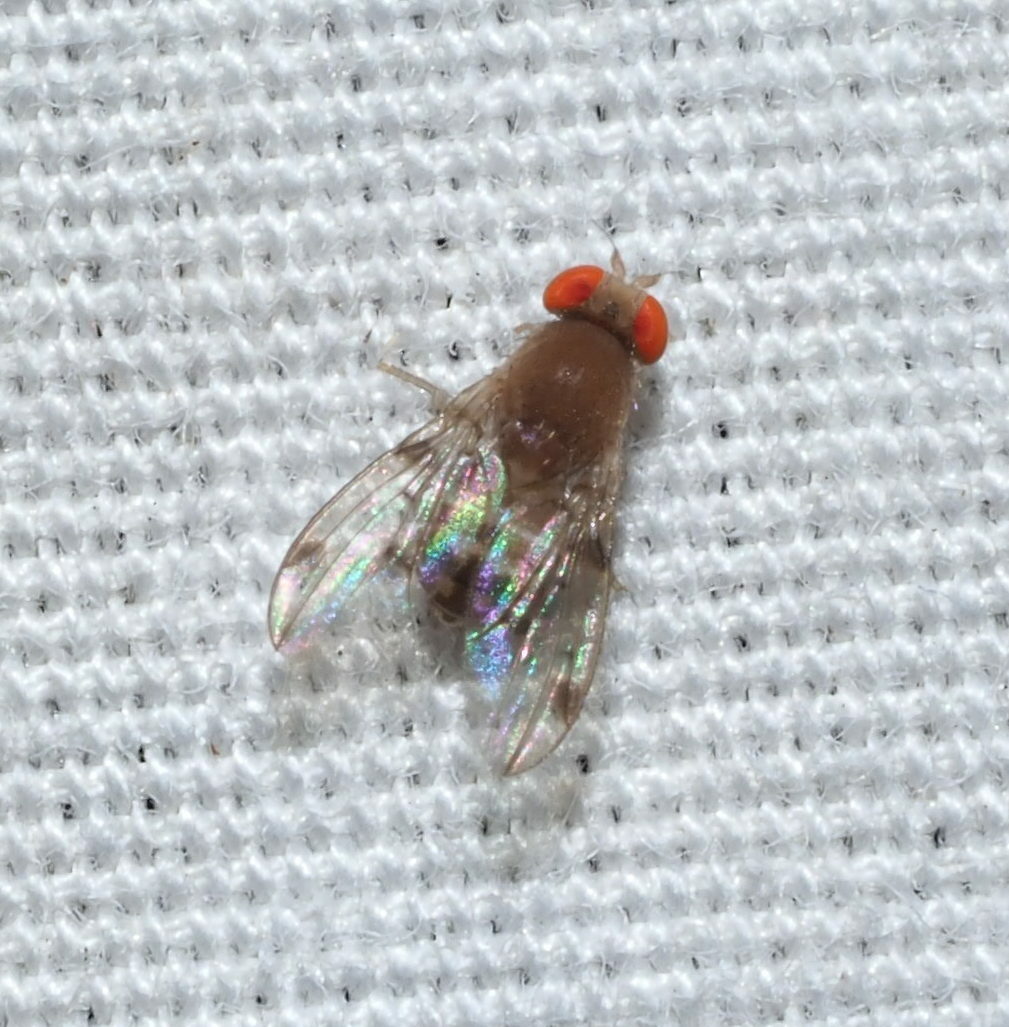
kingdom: Animalia
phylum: Arthropoda
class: Insecta
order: Diptera
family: Drosophilidae
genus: Leucophenga
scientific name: Leucophenga maculosa
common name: Pomace fly
